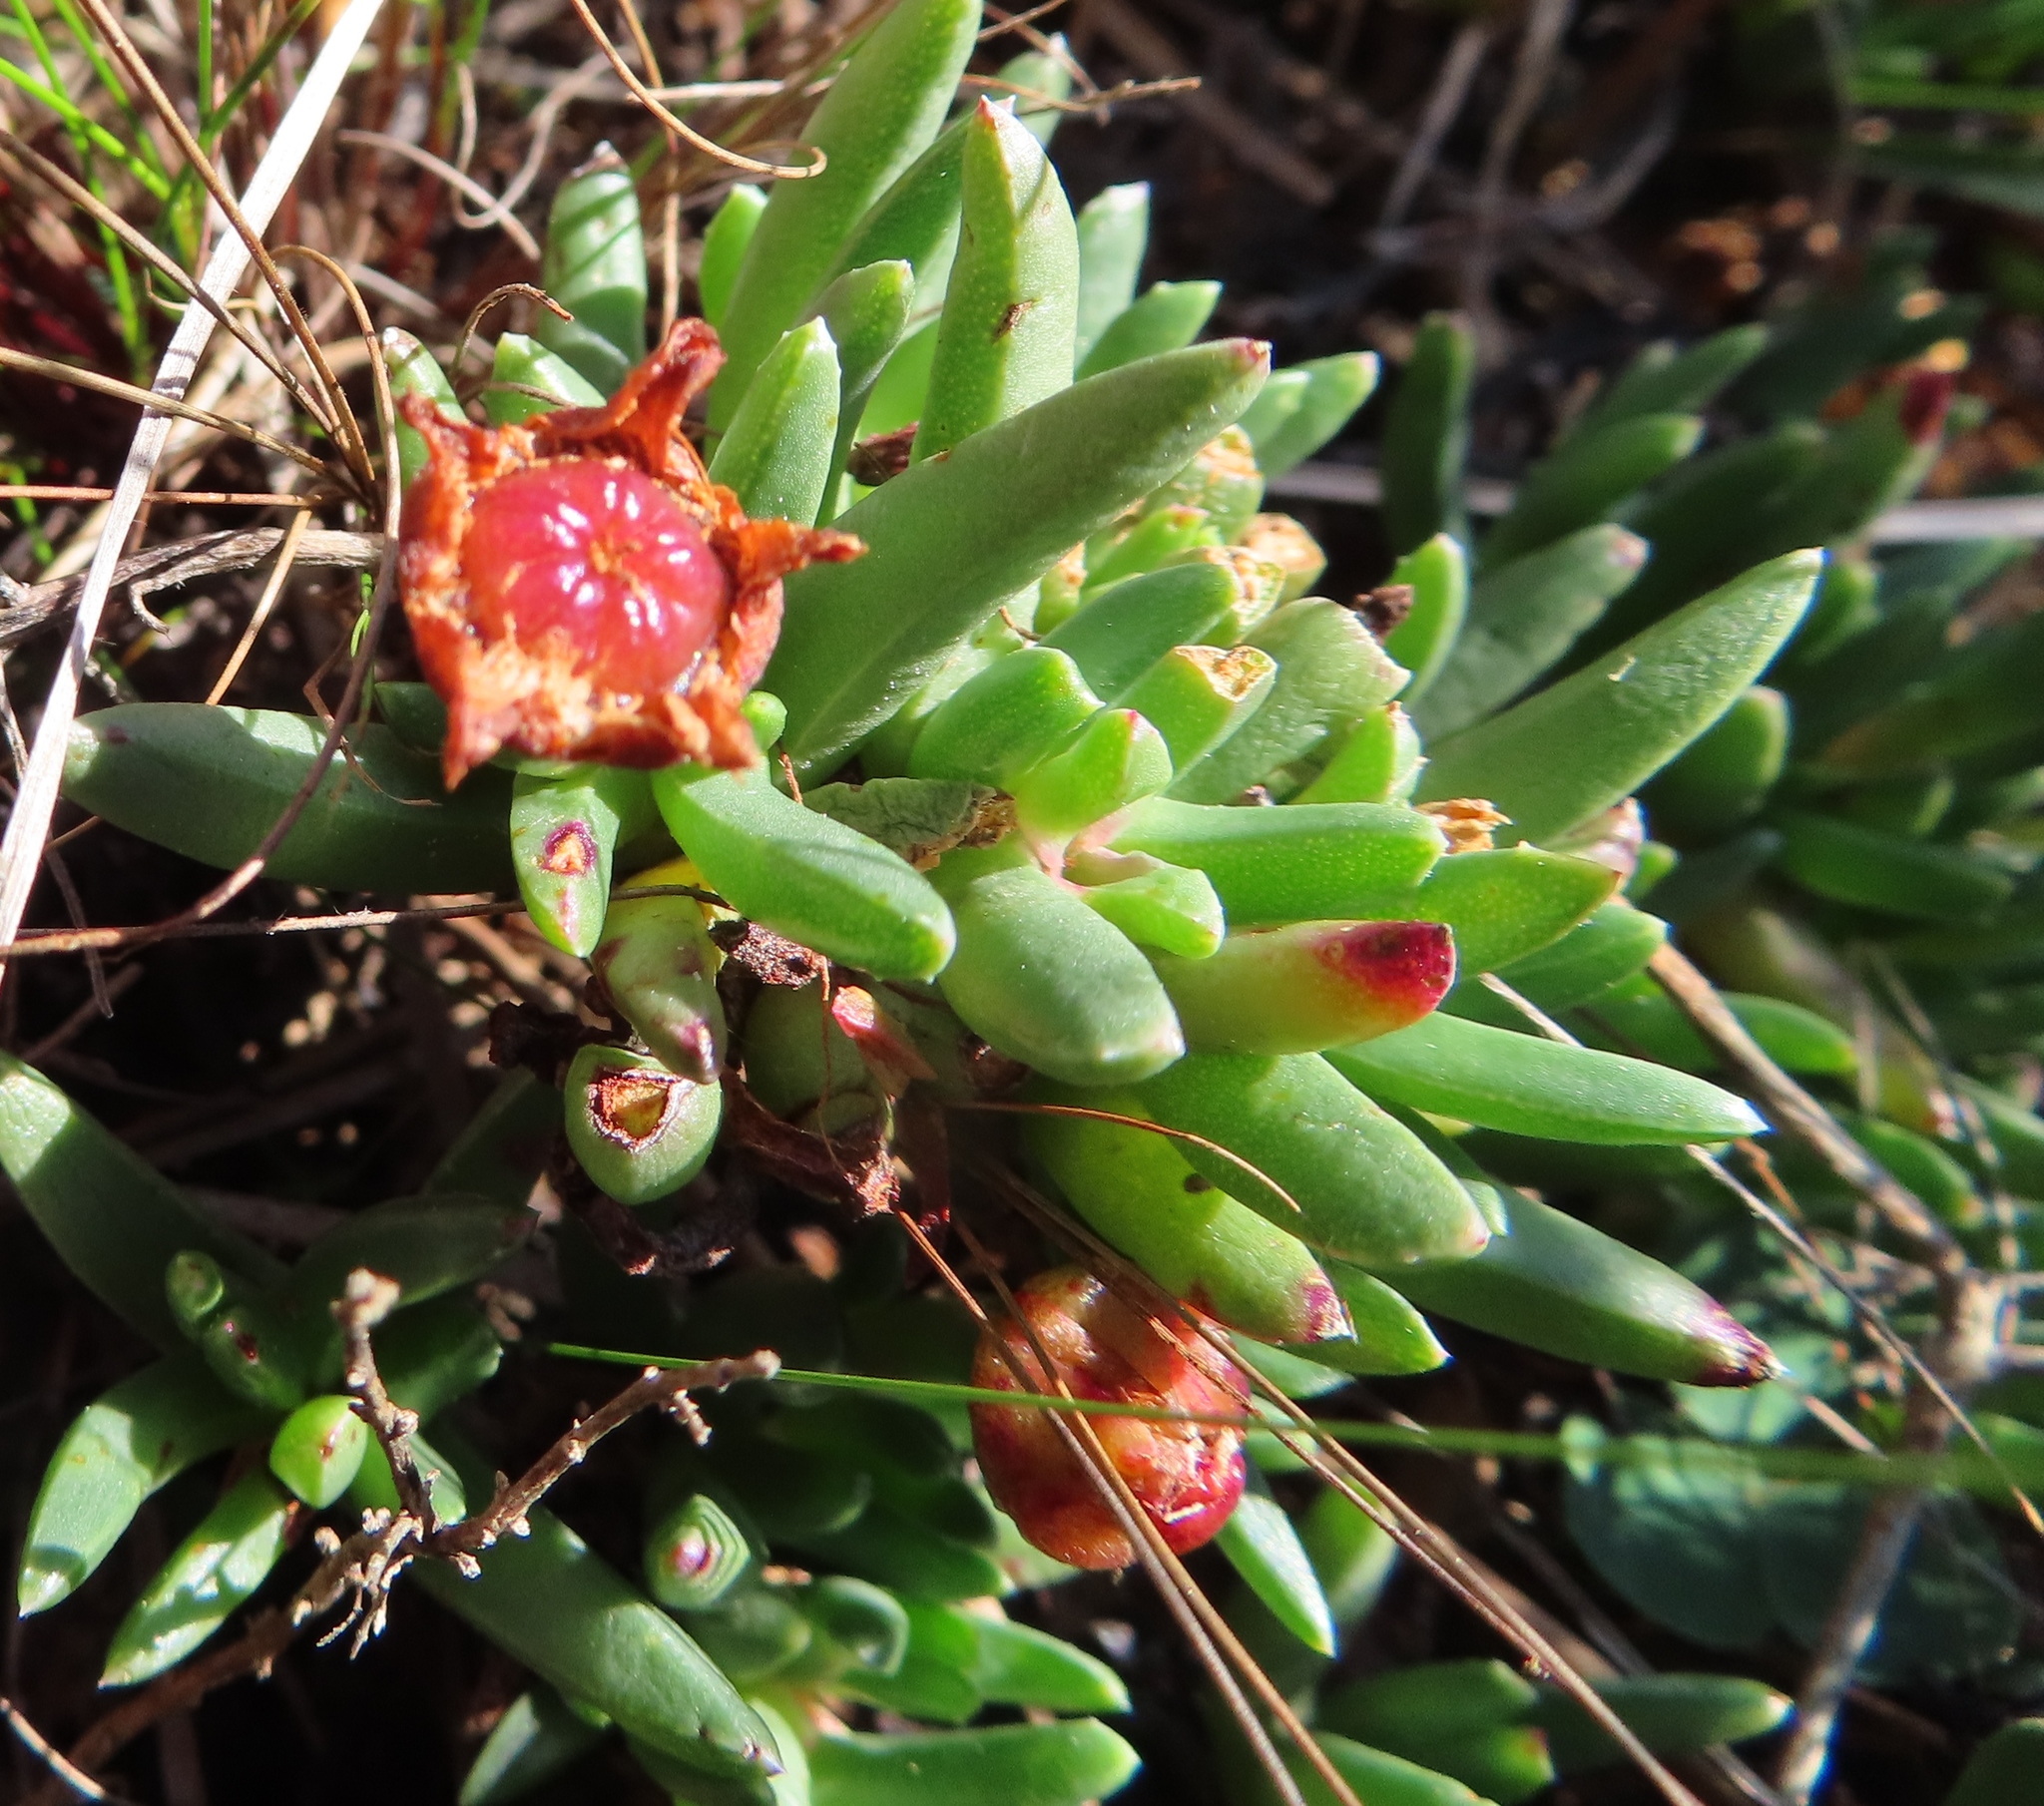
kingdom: Plantae
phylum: Tracheophyta
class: Magnoliopsida
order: Caryophyllales
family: Aizoaceae
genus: Acrodon
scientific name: Acrodon parvifolius
